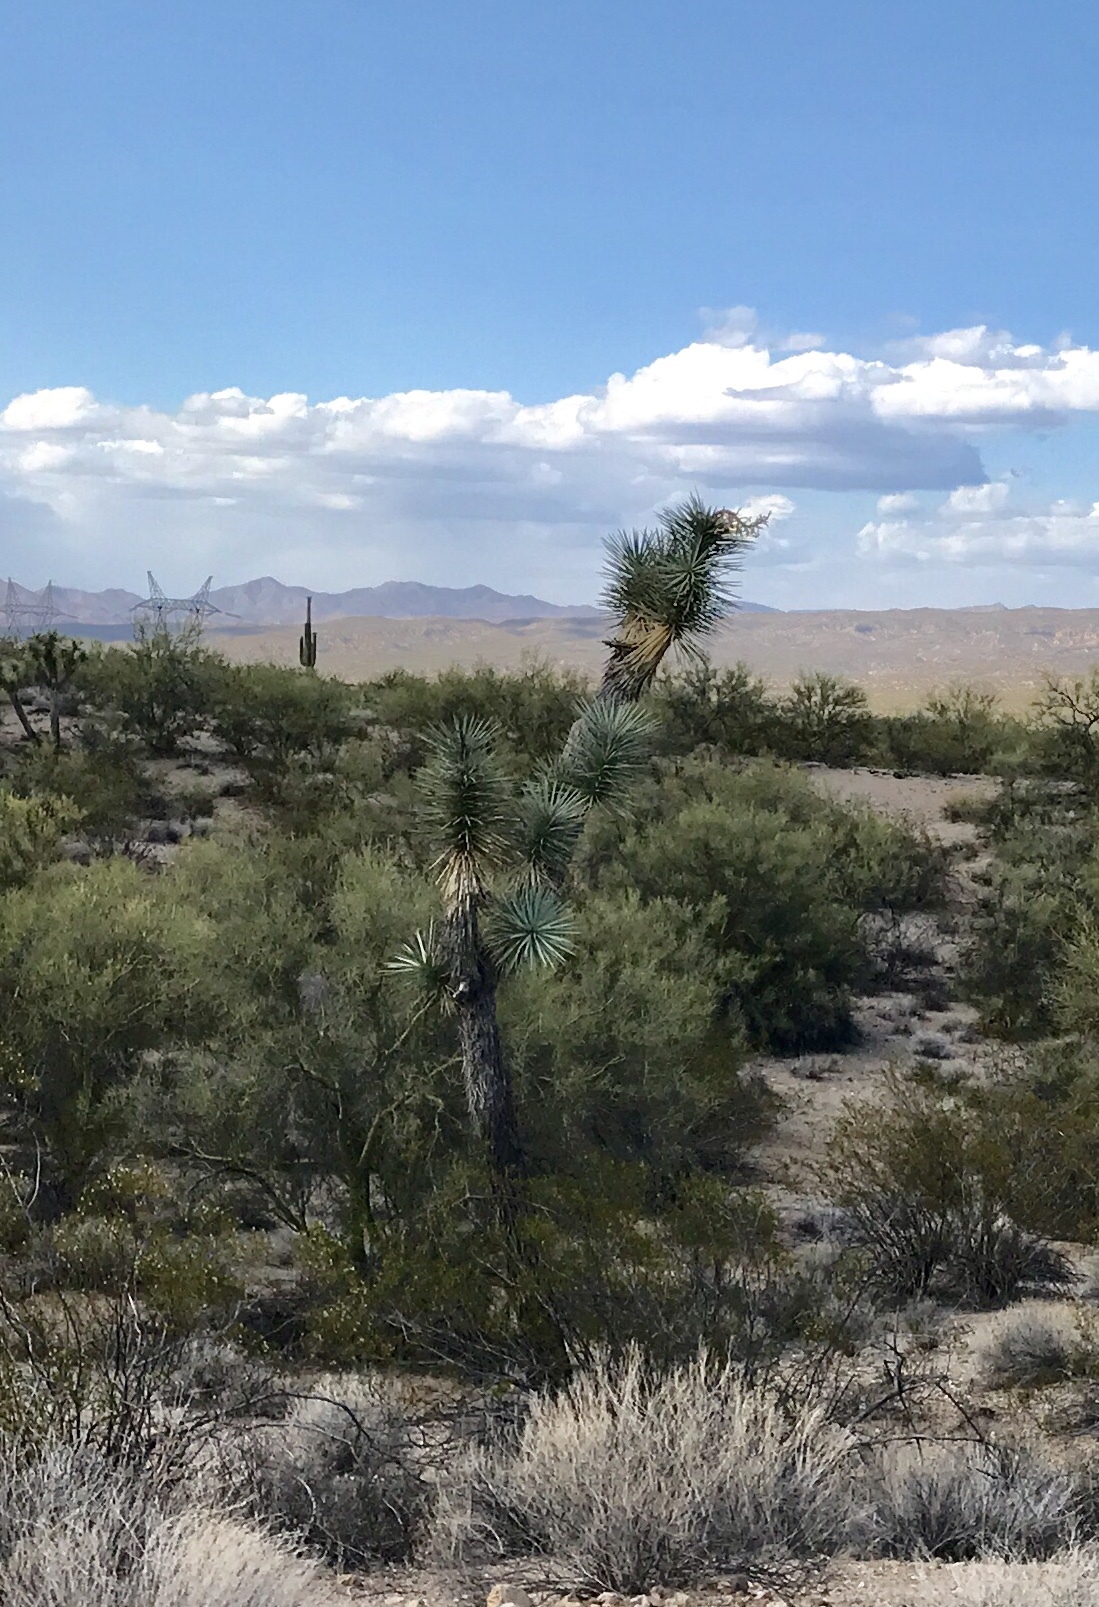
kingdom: Plantae
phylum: Tracheophyta
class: Liliopsida
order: Asparagales
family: Asparagaceae
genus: Yucca
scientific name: Yucca brevifolia
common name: Joshua tree
